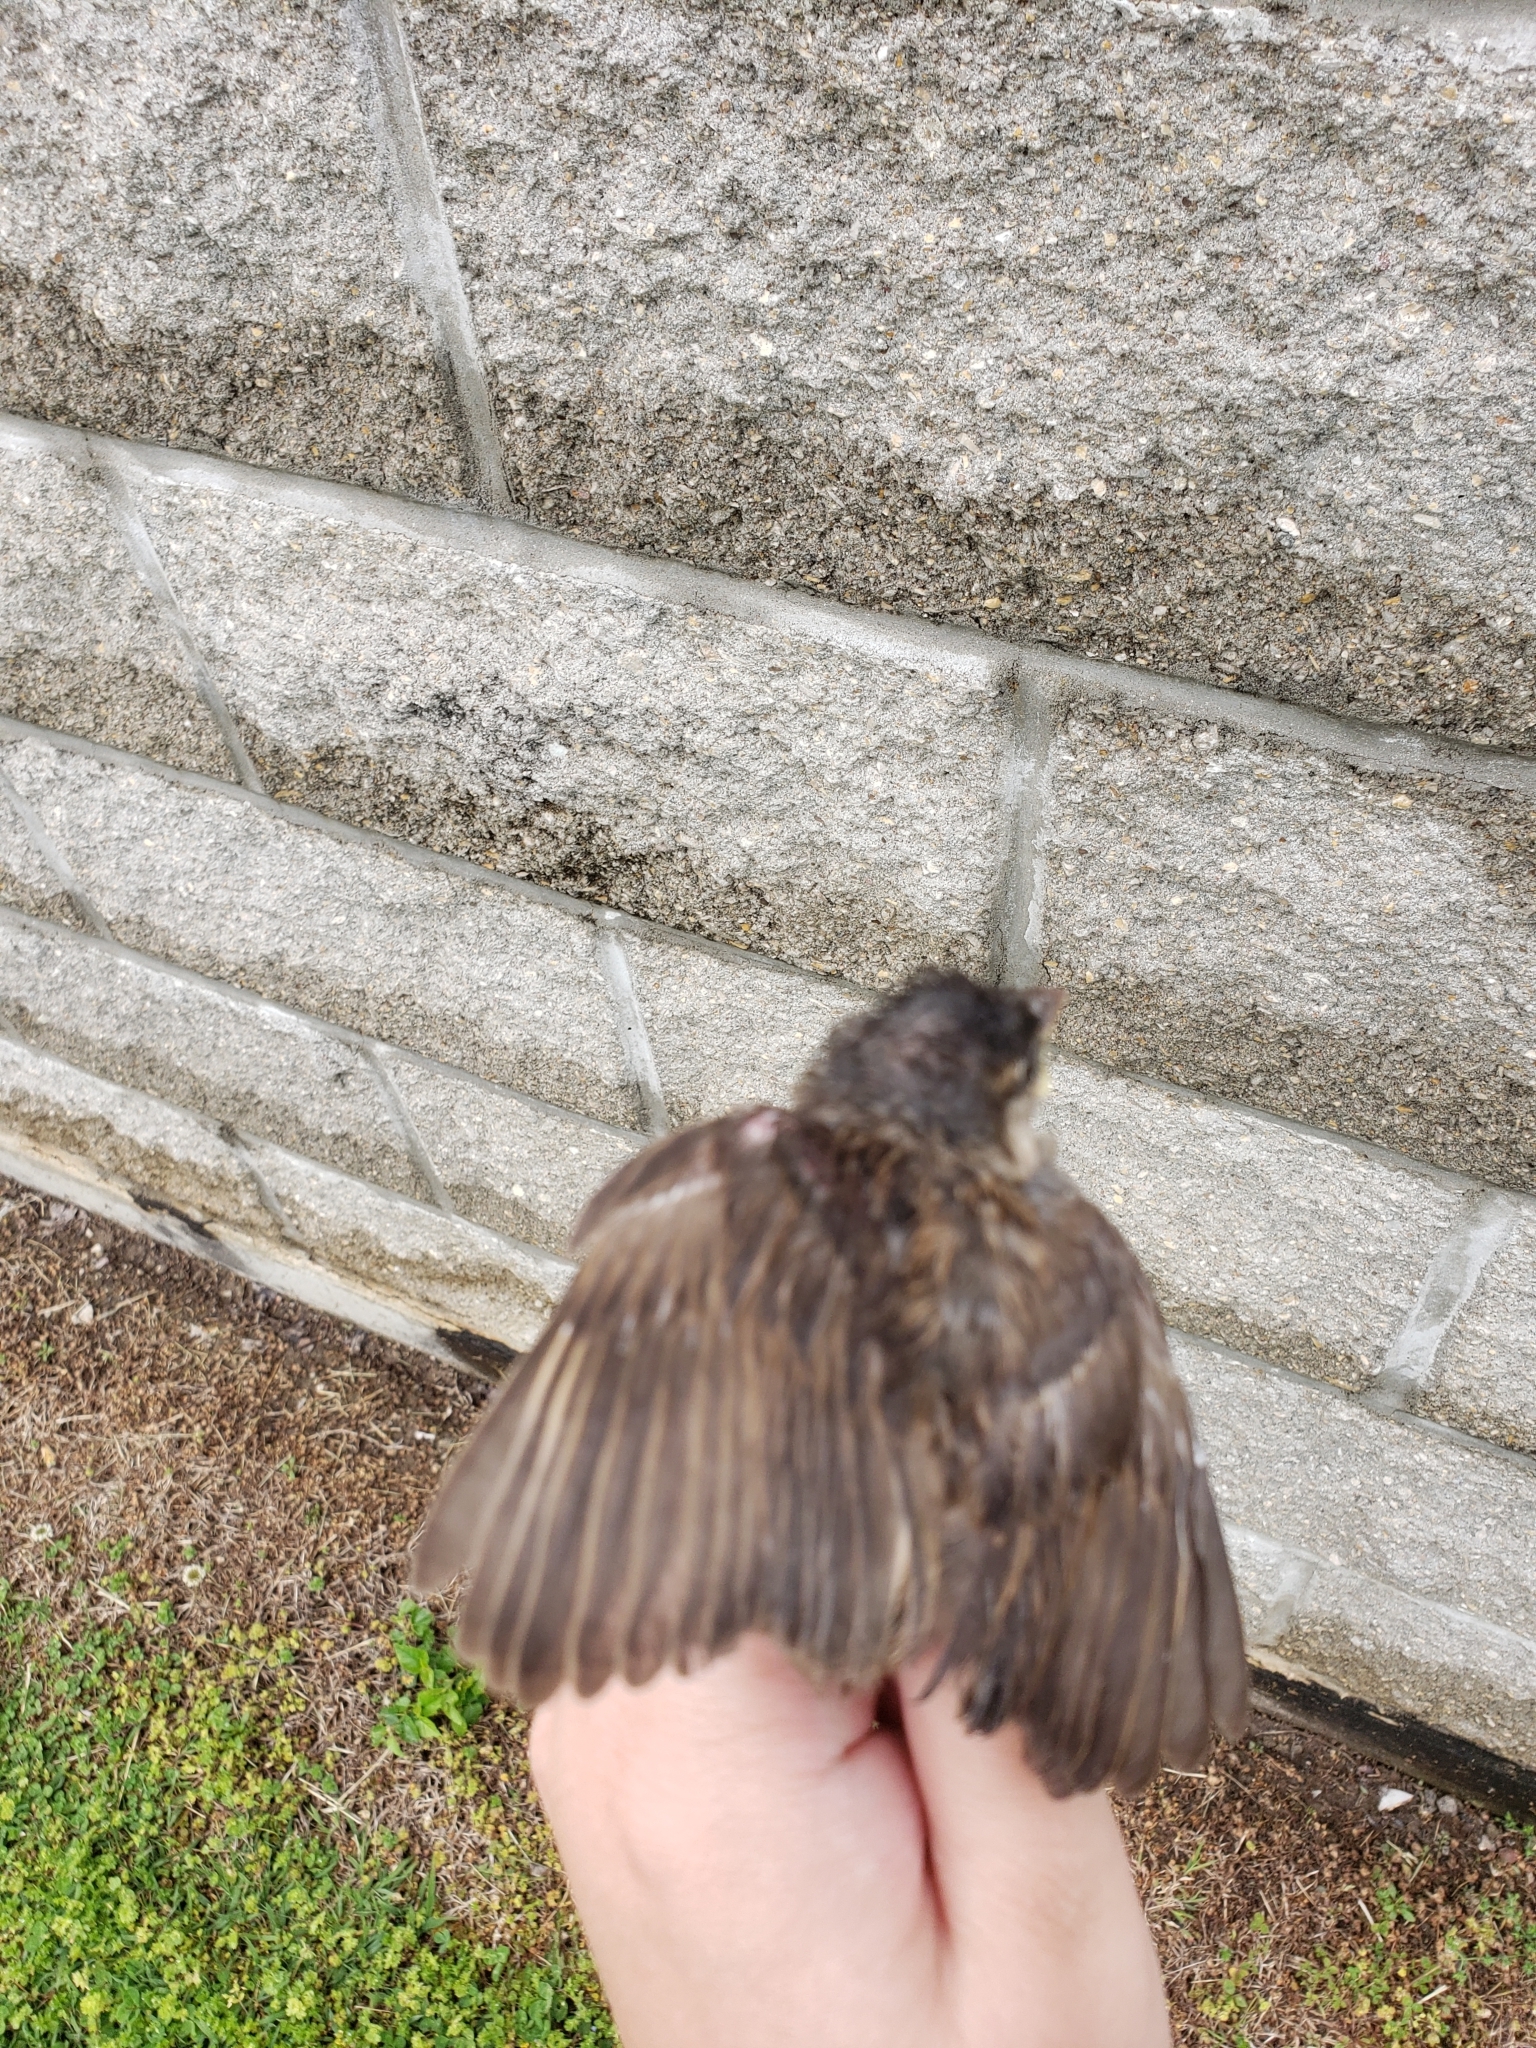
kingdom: Animalia
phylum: Chordata
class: Aves
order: Passeriformes
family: Passeridae
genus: Passer
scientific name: Passer domesticus
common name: House sparrow
